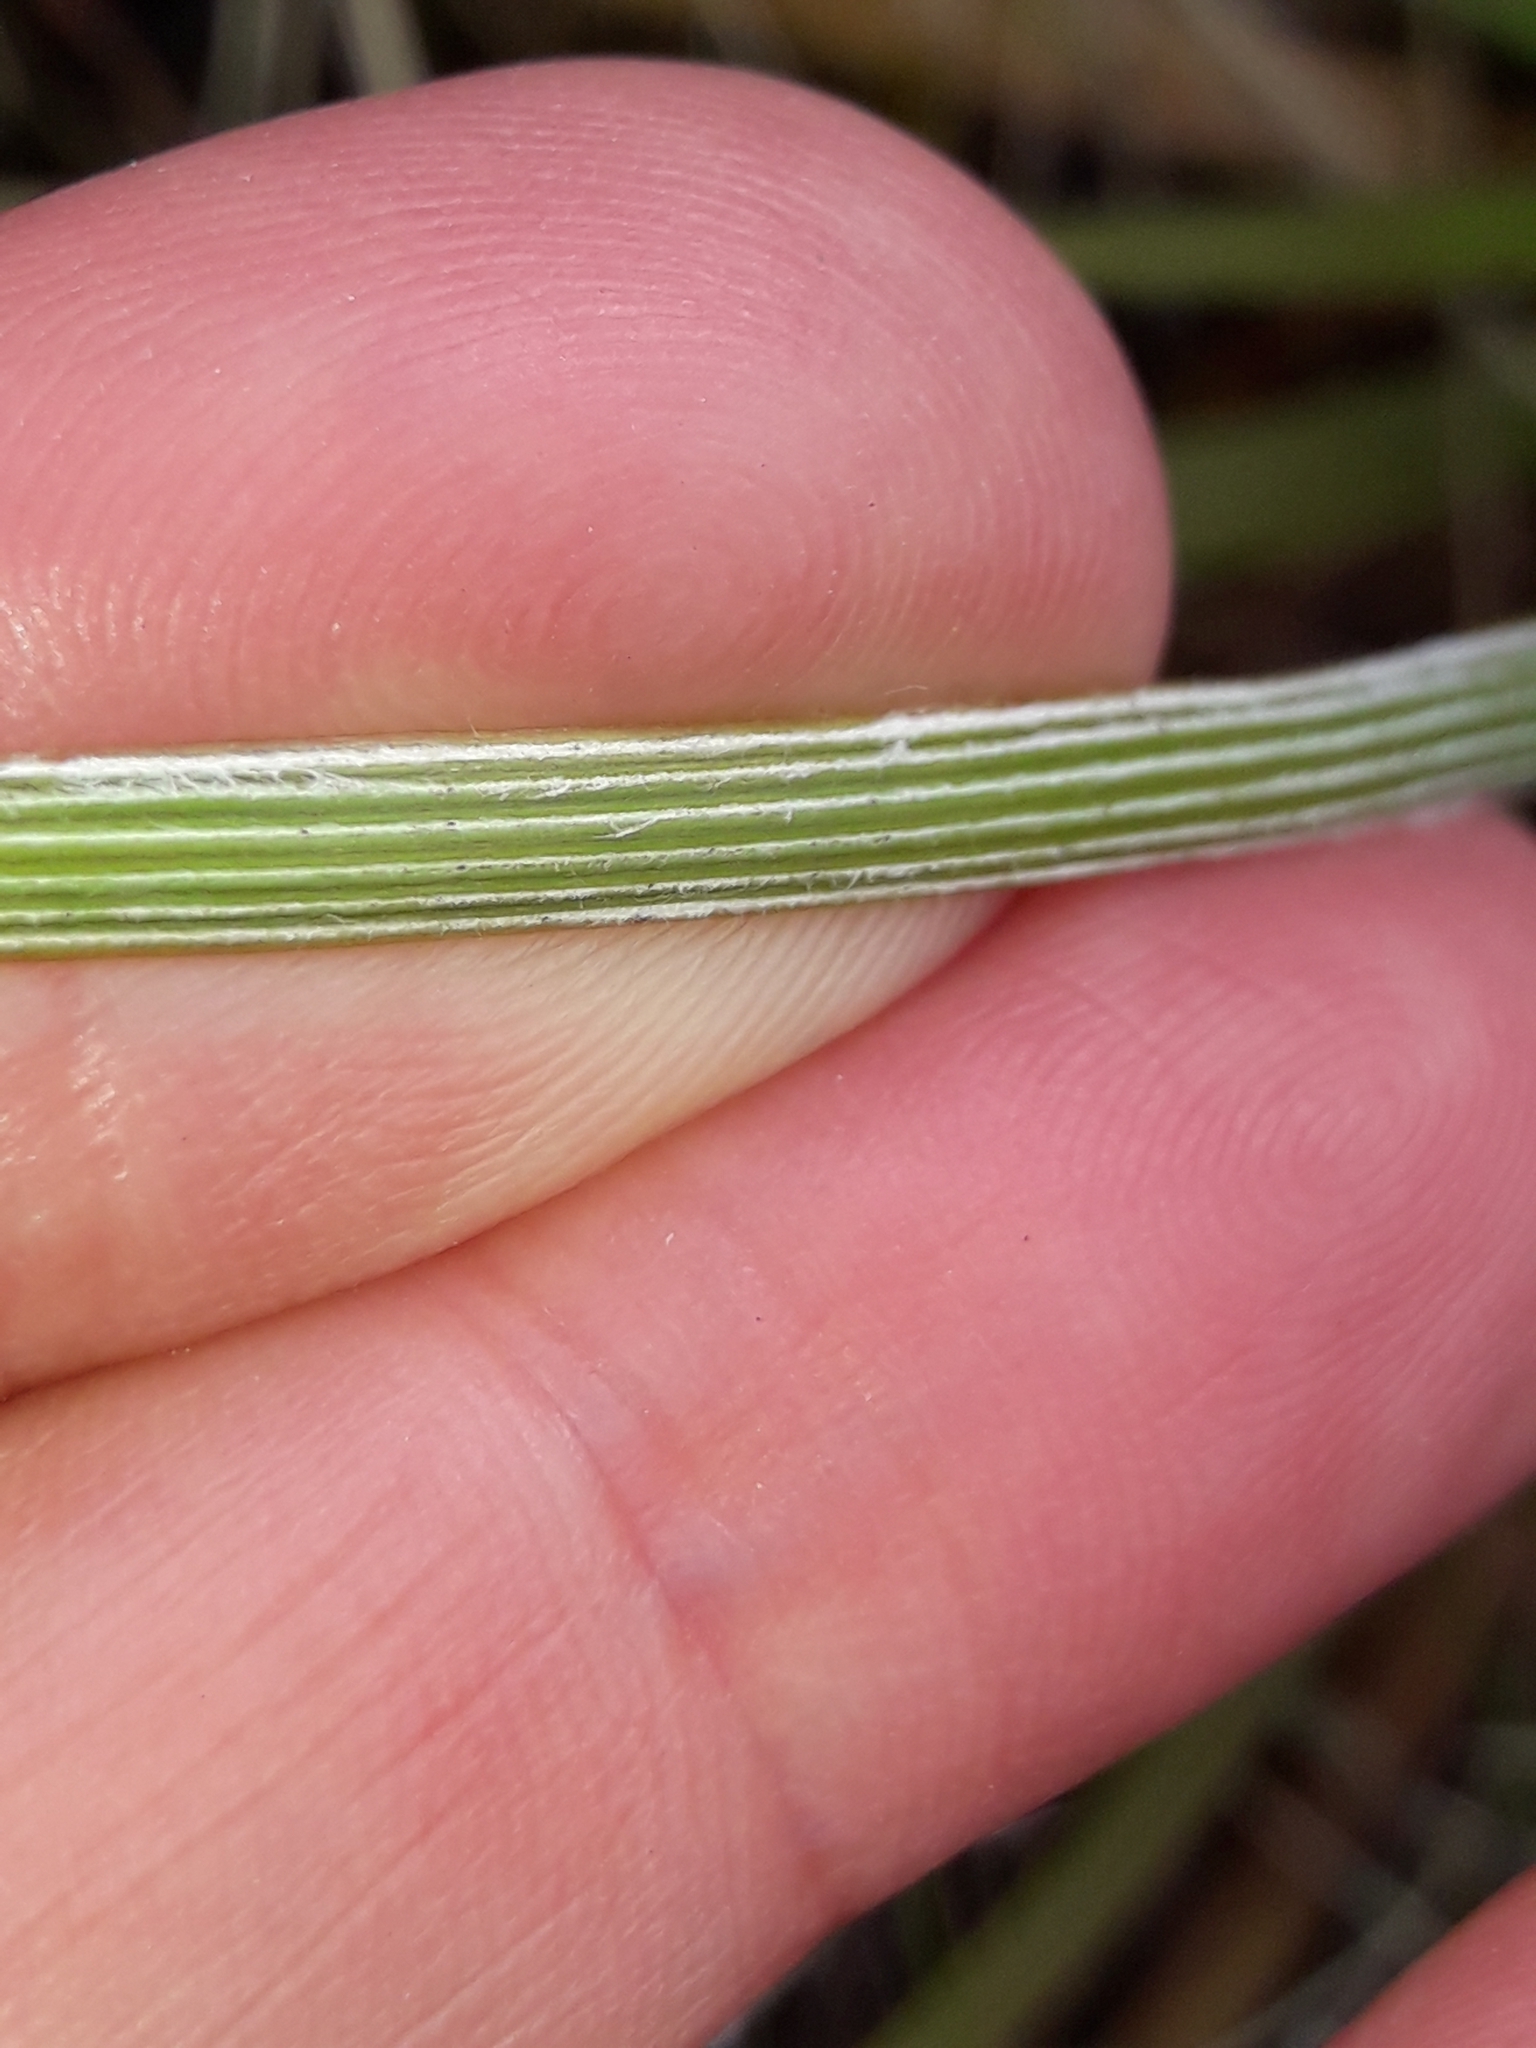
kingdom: Plantae
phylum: Tracheophyta
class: Magnoliopsida
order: Asterales
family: Asteraceae
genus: Celmisia
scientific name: Celmisia lyallii
